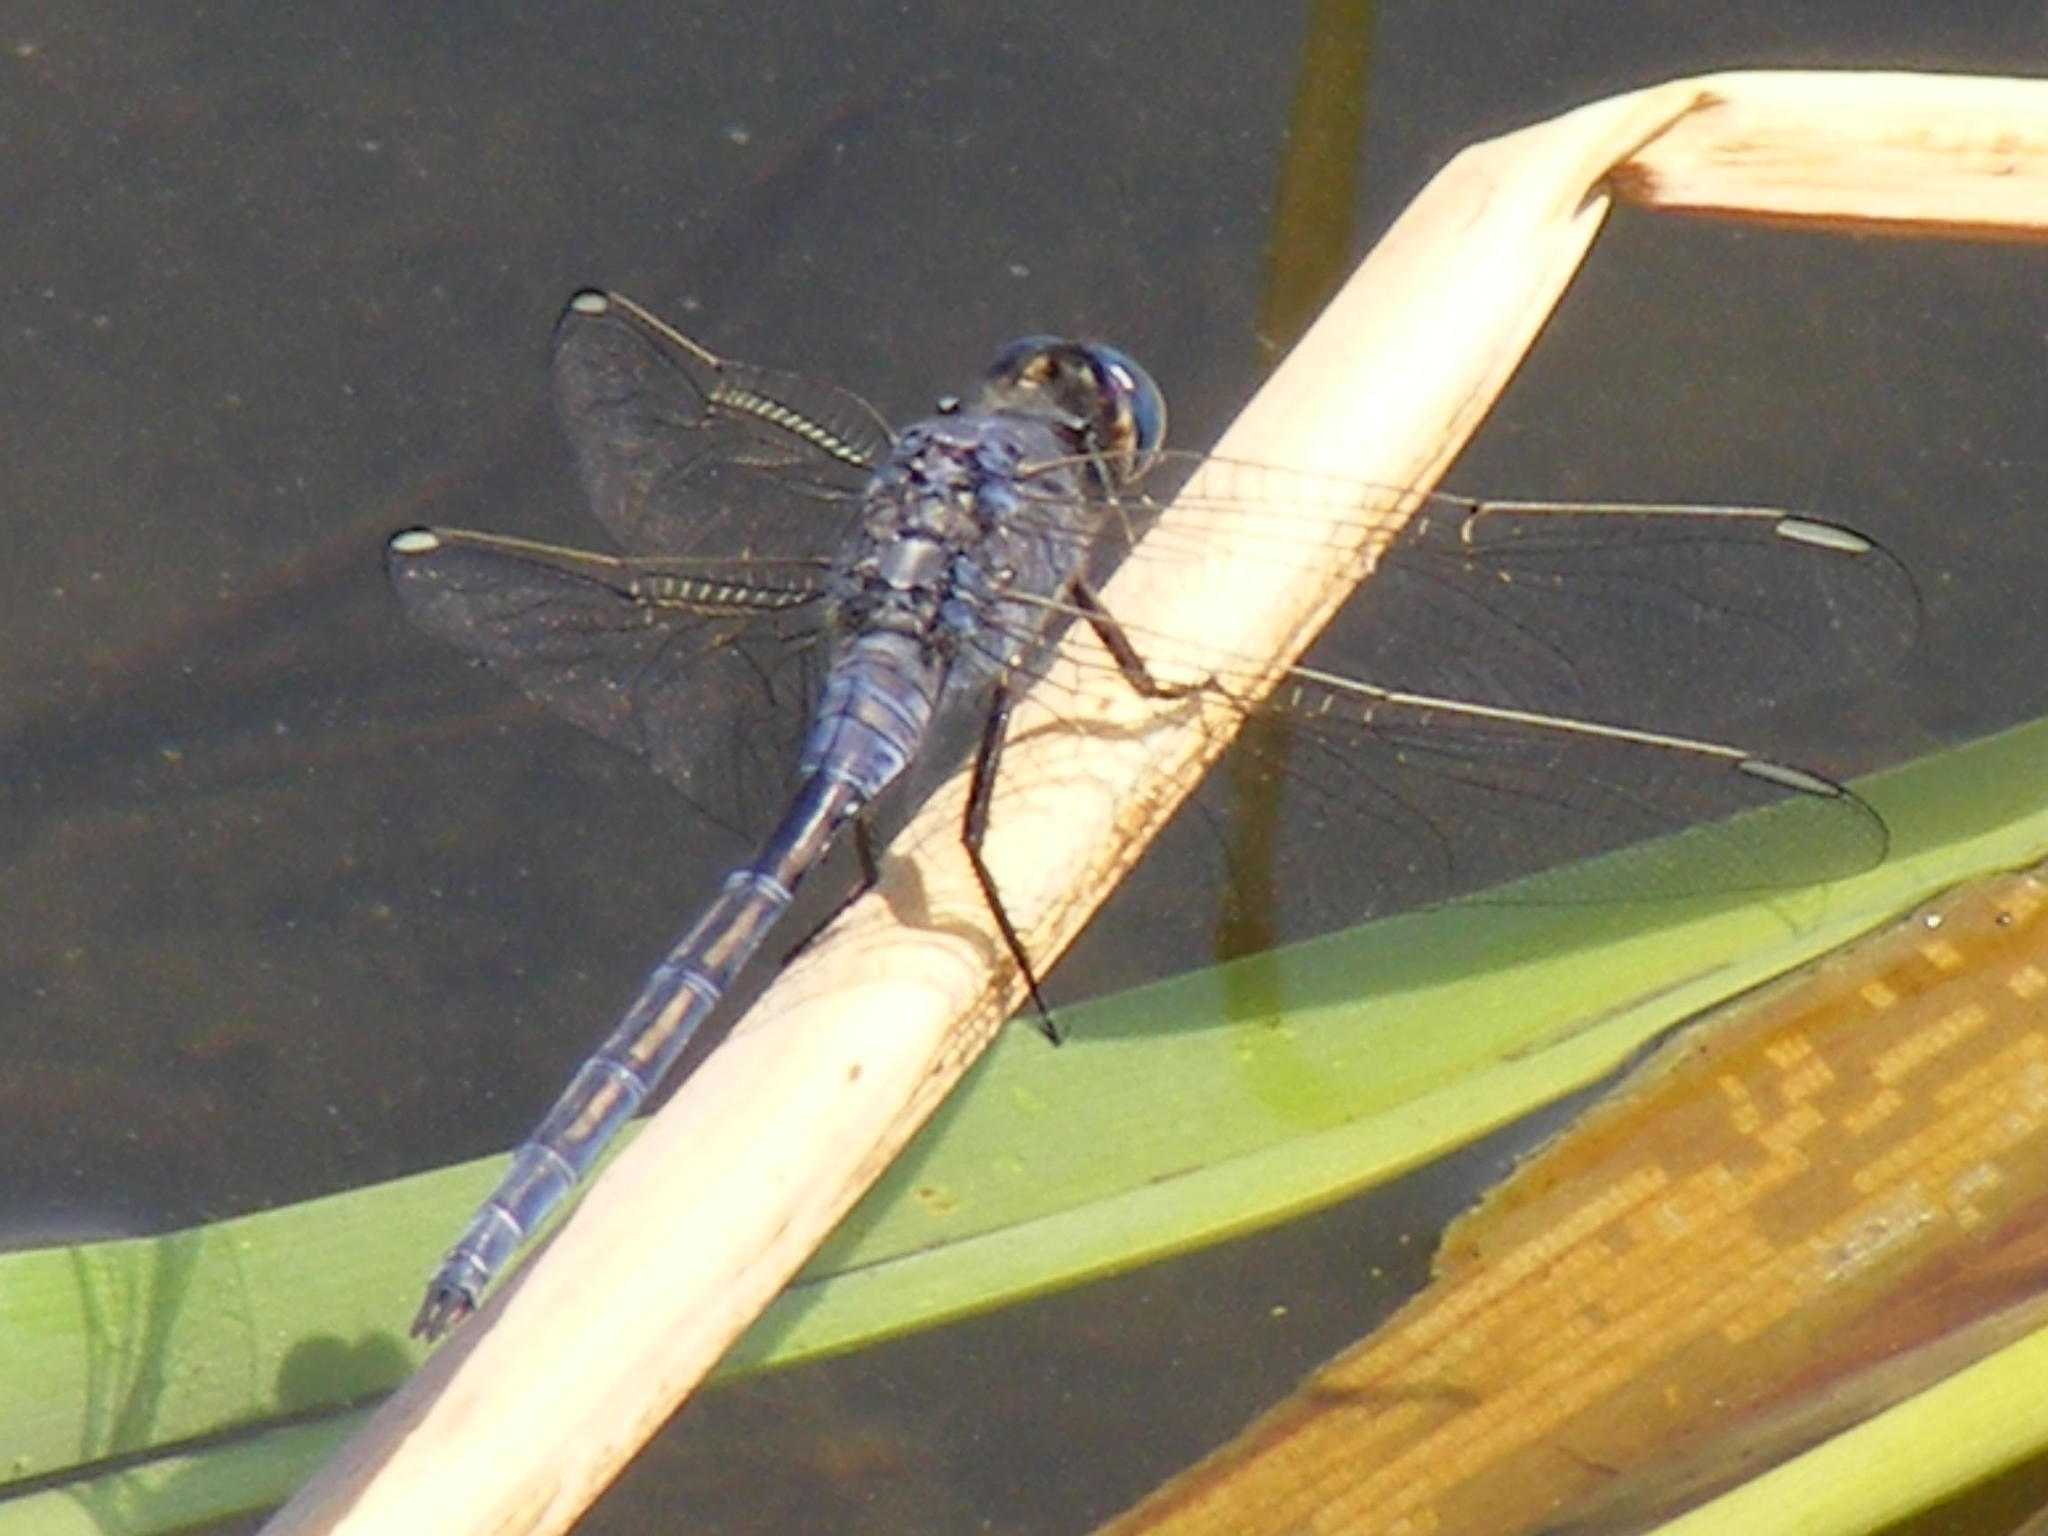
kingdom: Animalia
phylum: Arthropoda
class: Insecta
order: Odonata
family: Libellulidae
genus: Orthetrum
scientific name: Orthetrum trinacria
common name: Long skimmer
